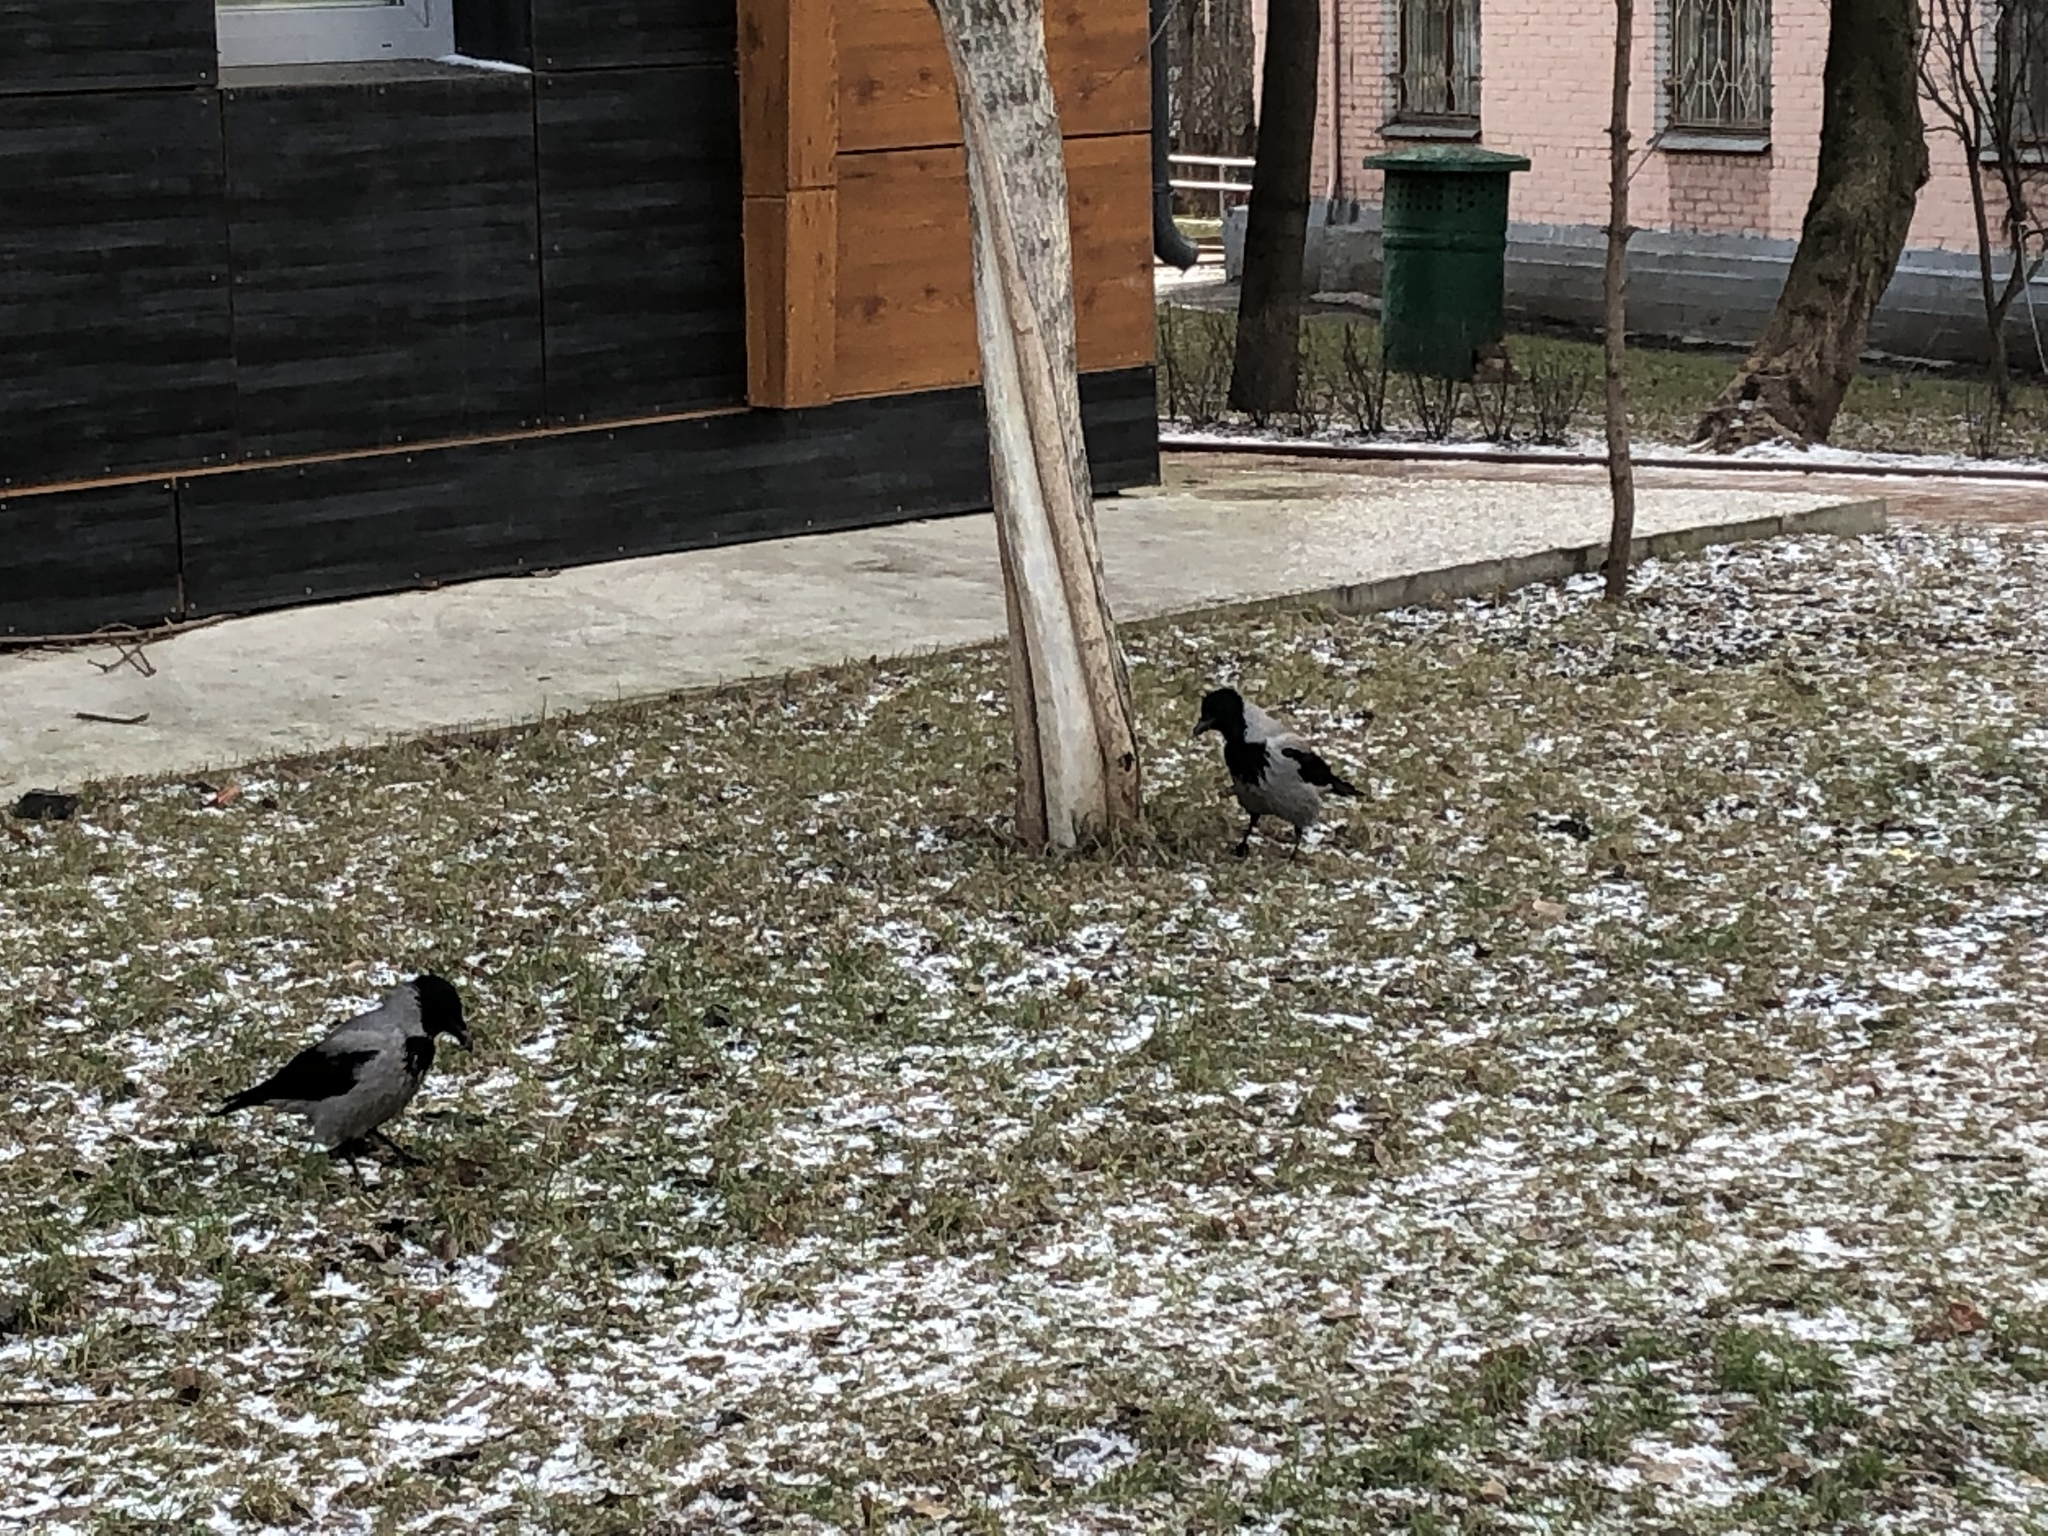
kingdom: Animalia
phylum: Chordata
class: Aves
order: Passeriformes
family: Corvidae
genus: Corvus
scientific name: Corvus cornix
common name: Hooded crow
